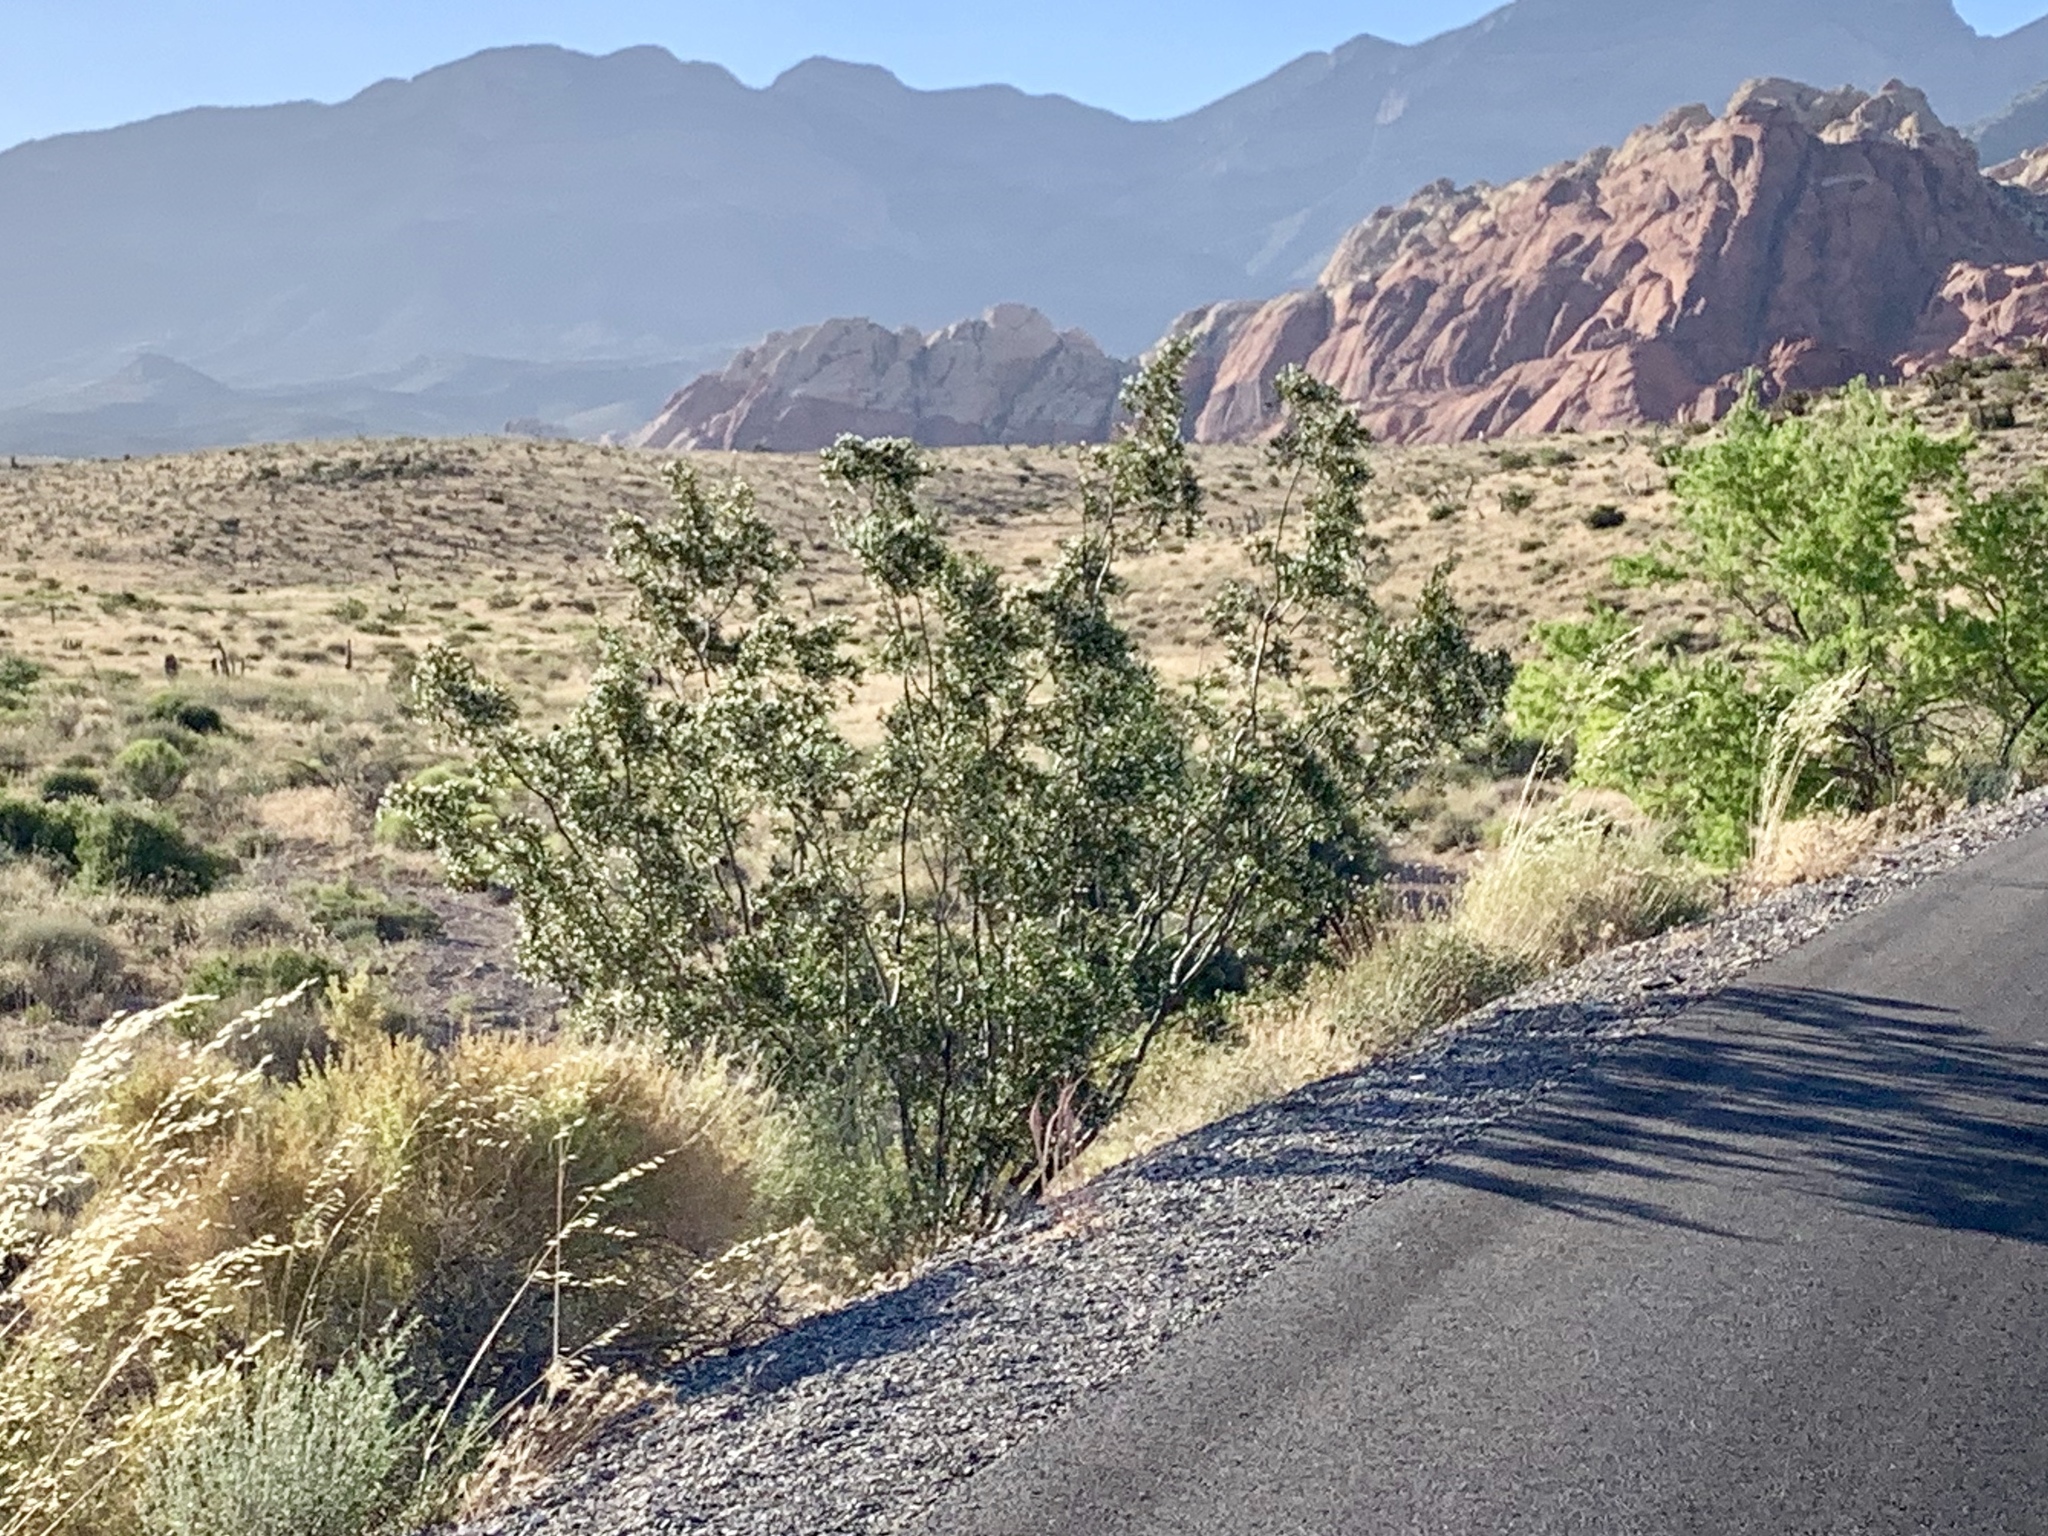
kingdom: Plantae
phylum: Tracheophyta
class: Magnoliopsida
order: Zygophyllales
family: Zygophyllaceae
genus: Larrea
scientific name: Larrea tridentata
